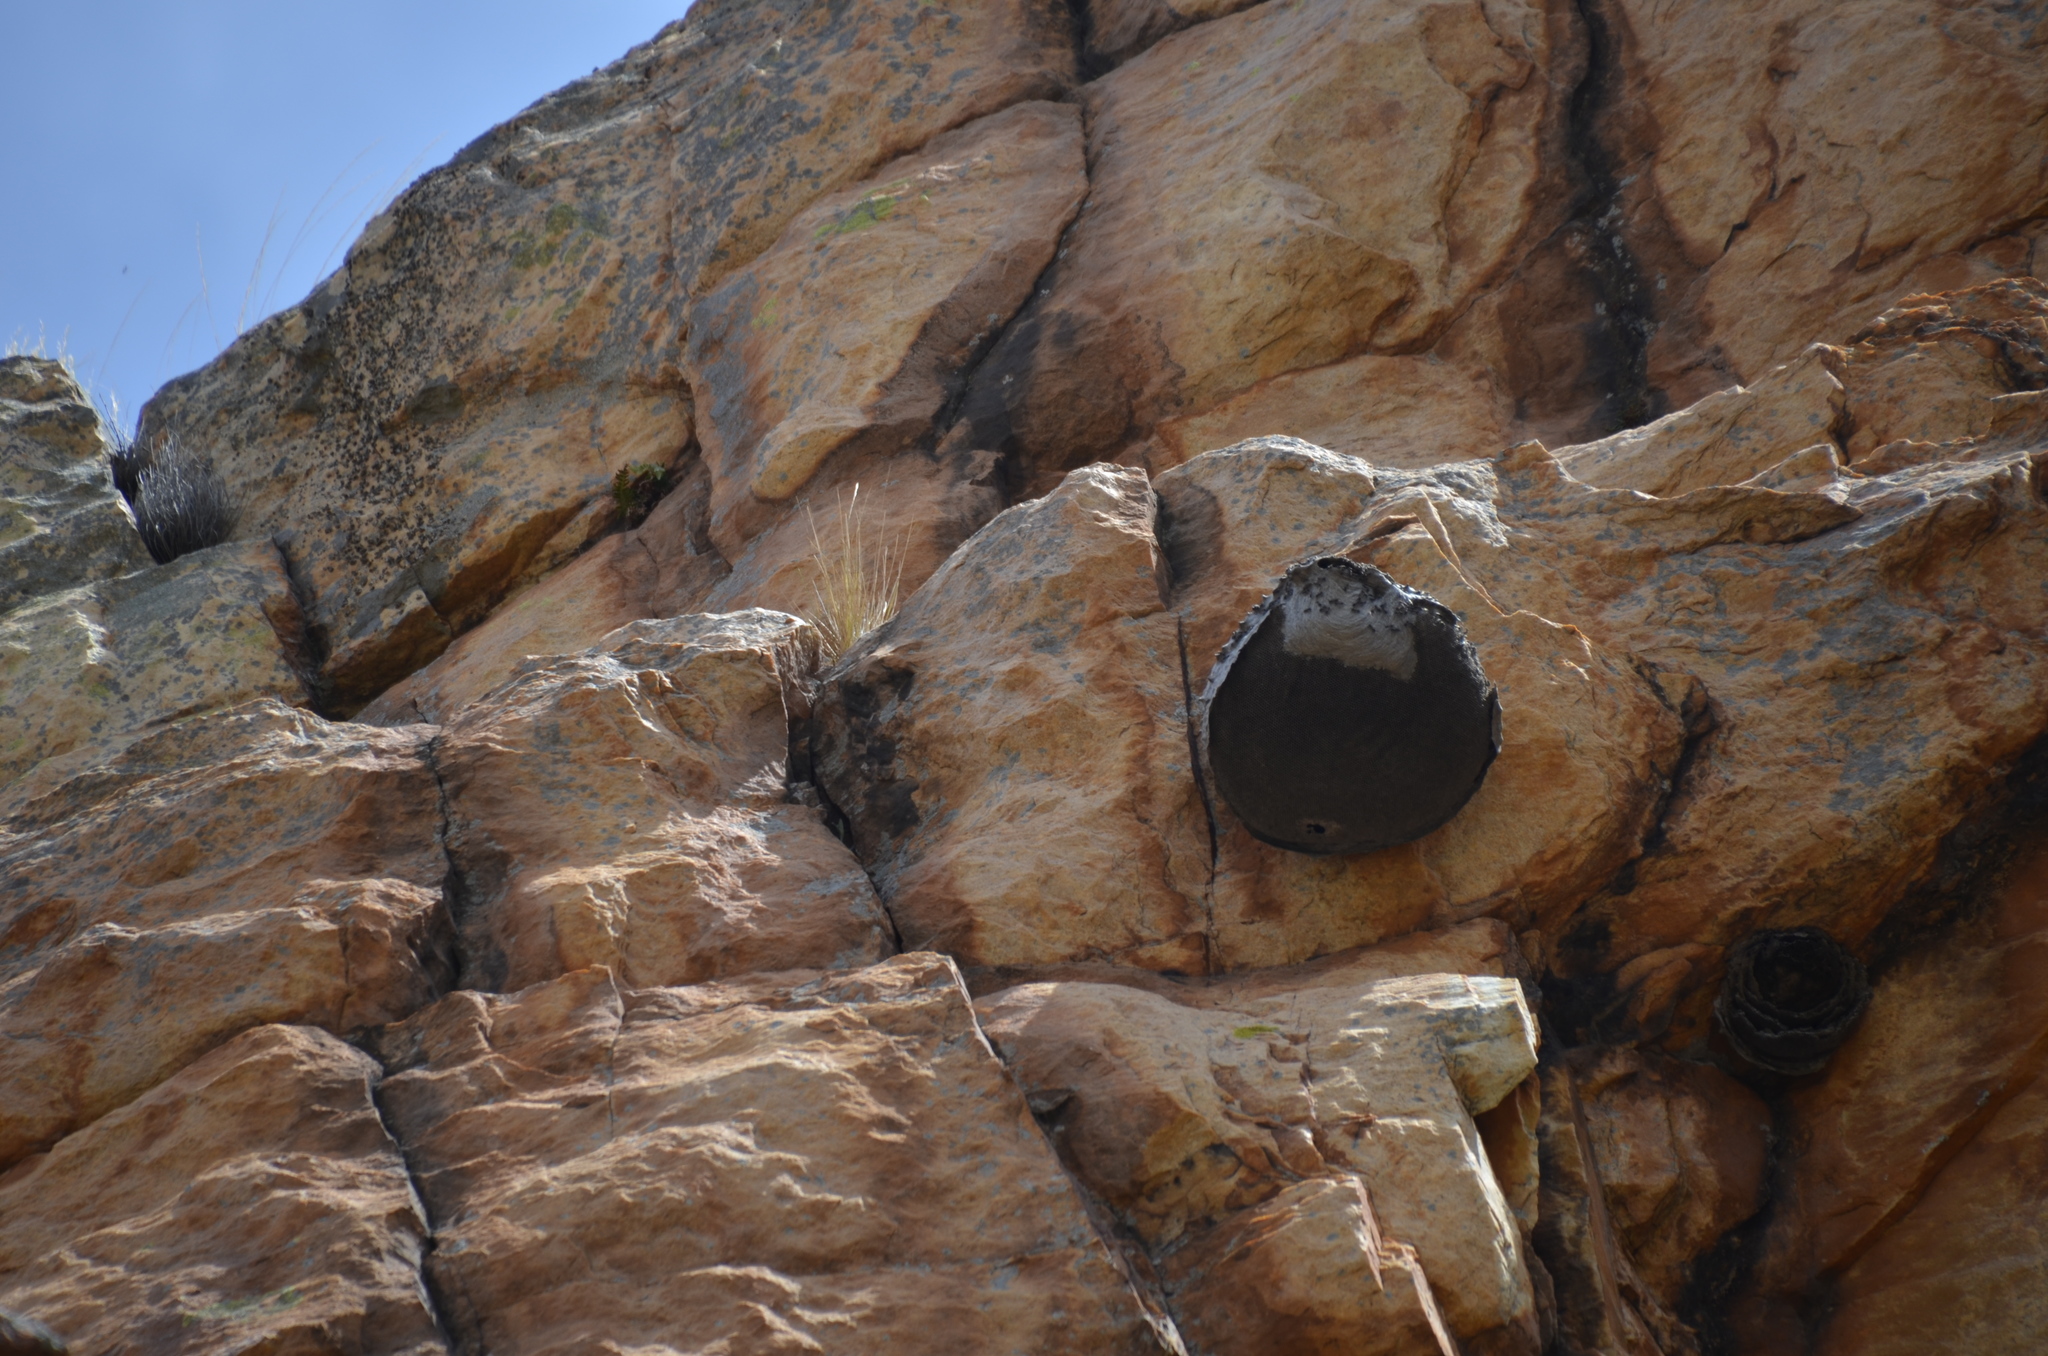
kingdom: Animalia
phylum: Arthropoda
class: Insecta
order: Hymenoptera
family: Eumenidae
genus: Polybia
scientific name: Polybia scutellaris
